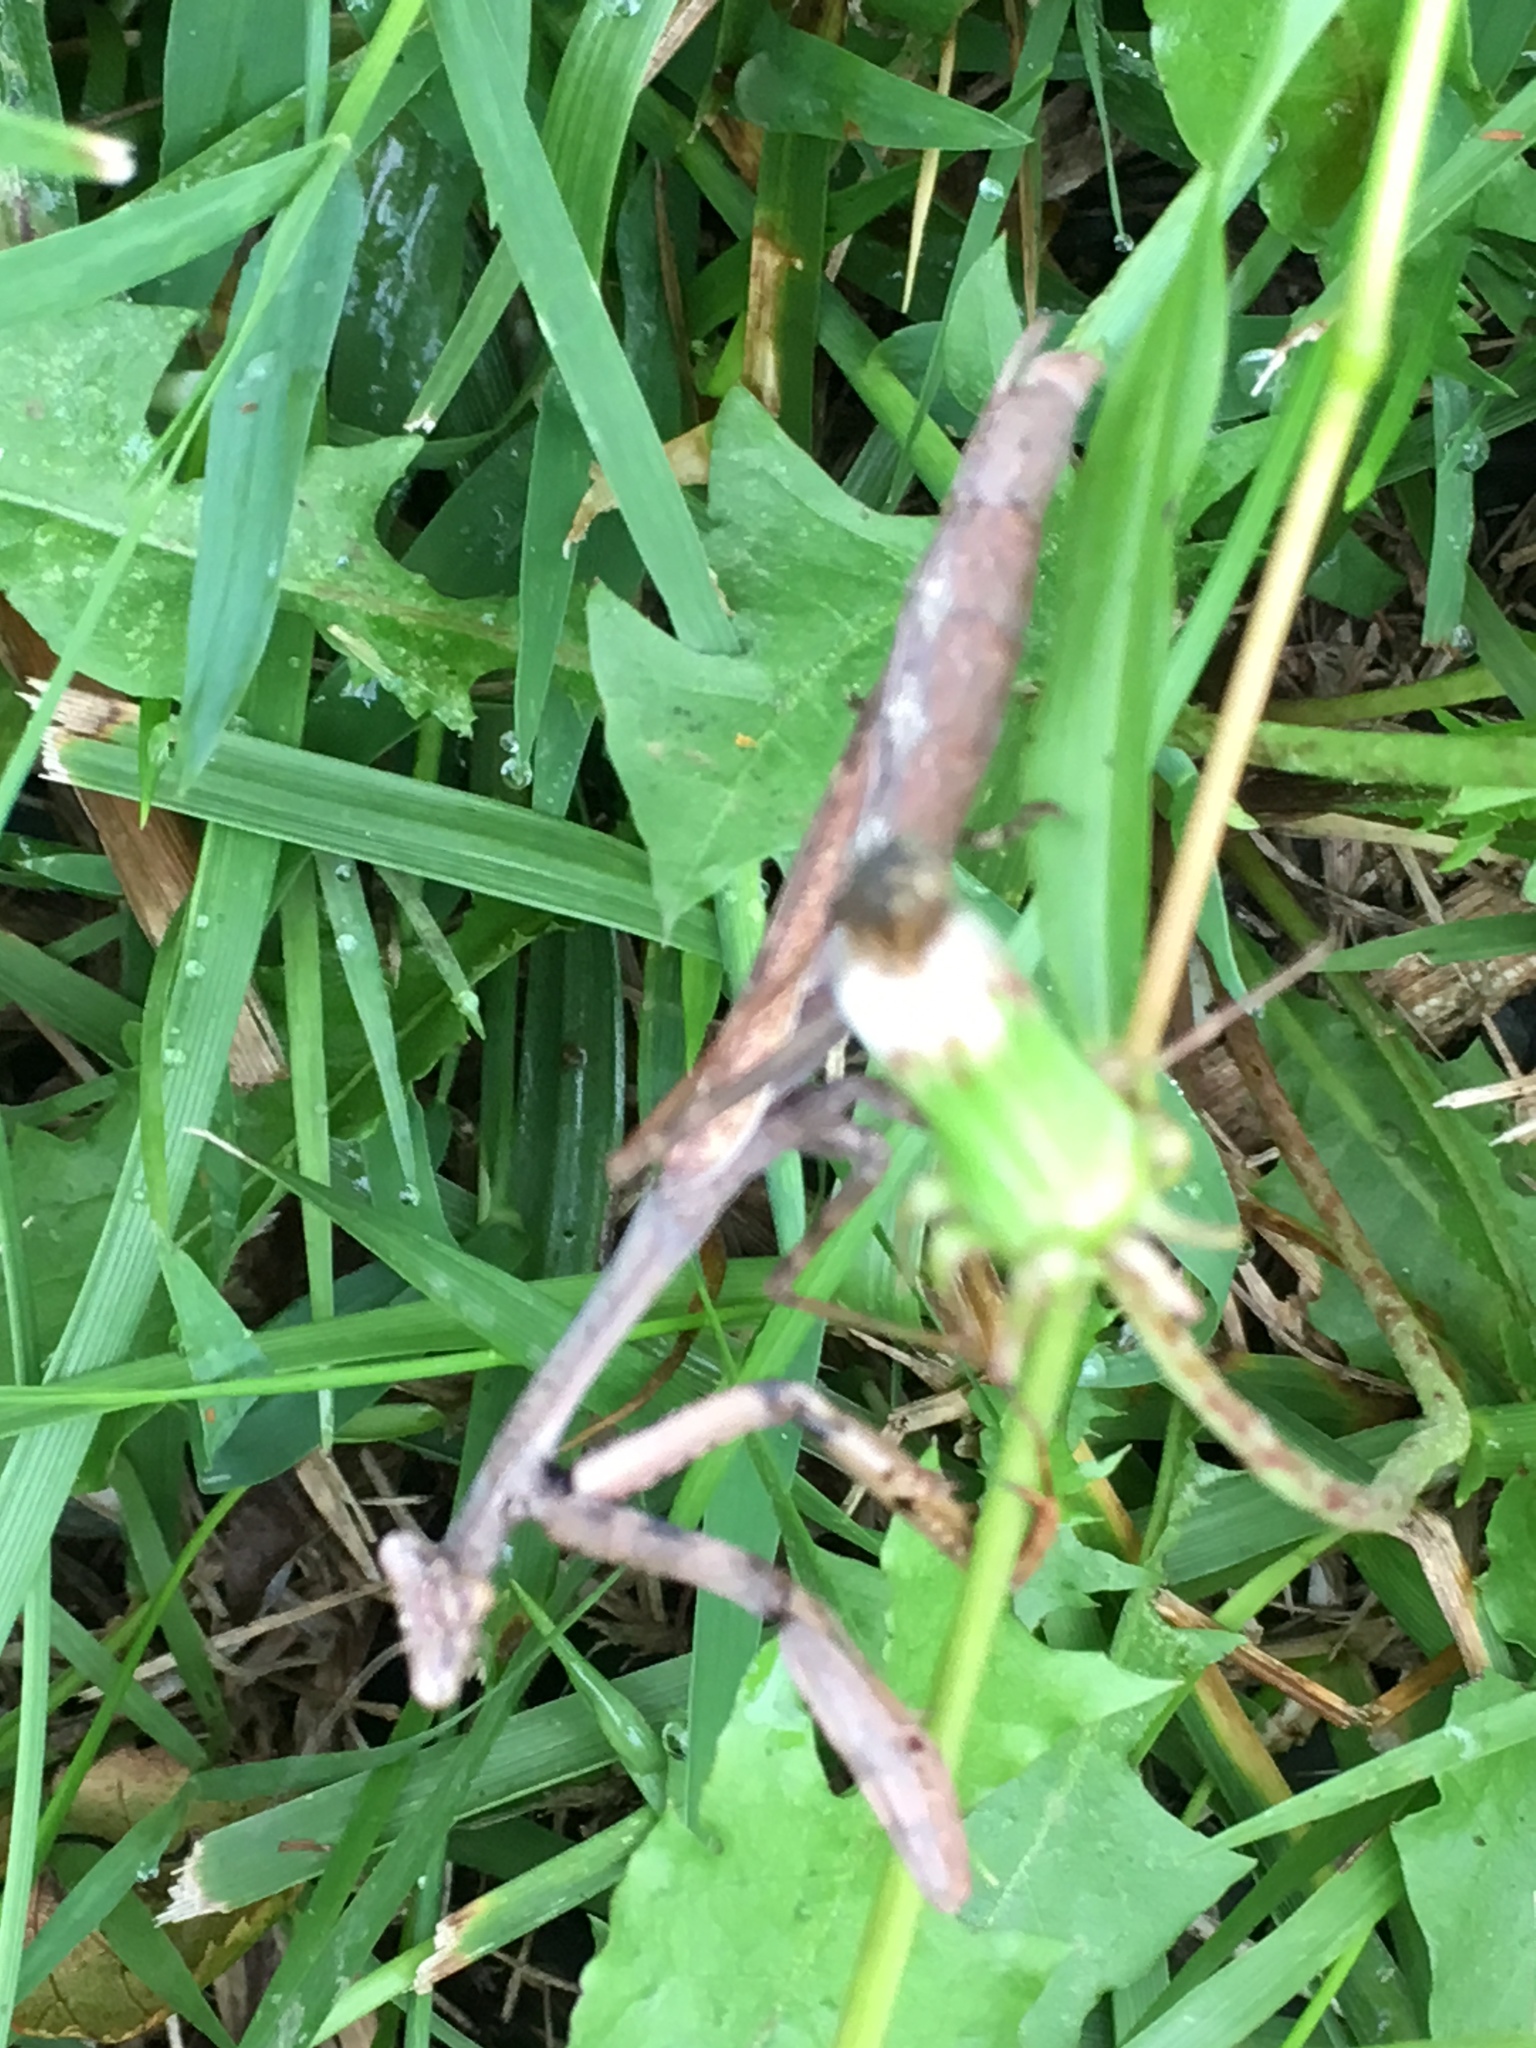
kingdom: Animalia
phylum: Arthropoda
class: Insecta
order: Mantodea
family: Mantidae
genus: Stagmomantis
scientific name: Stagmomantis carolina
